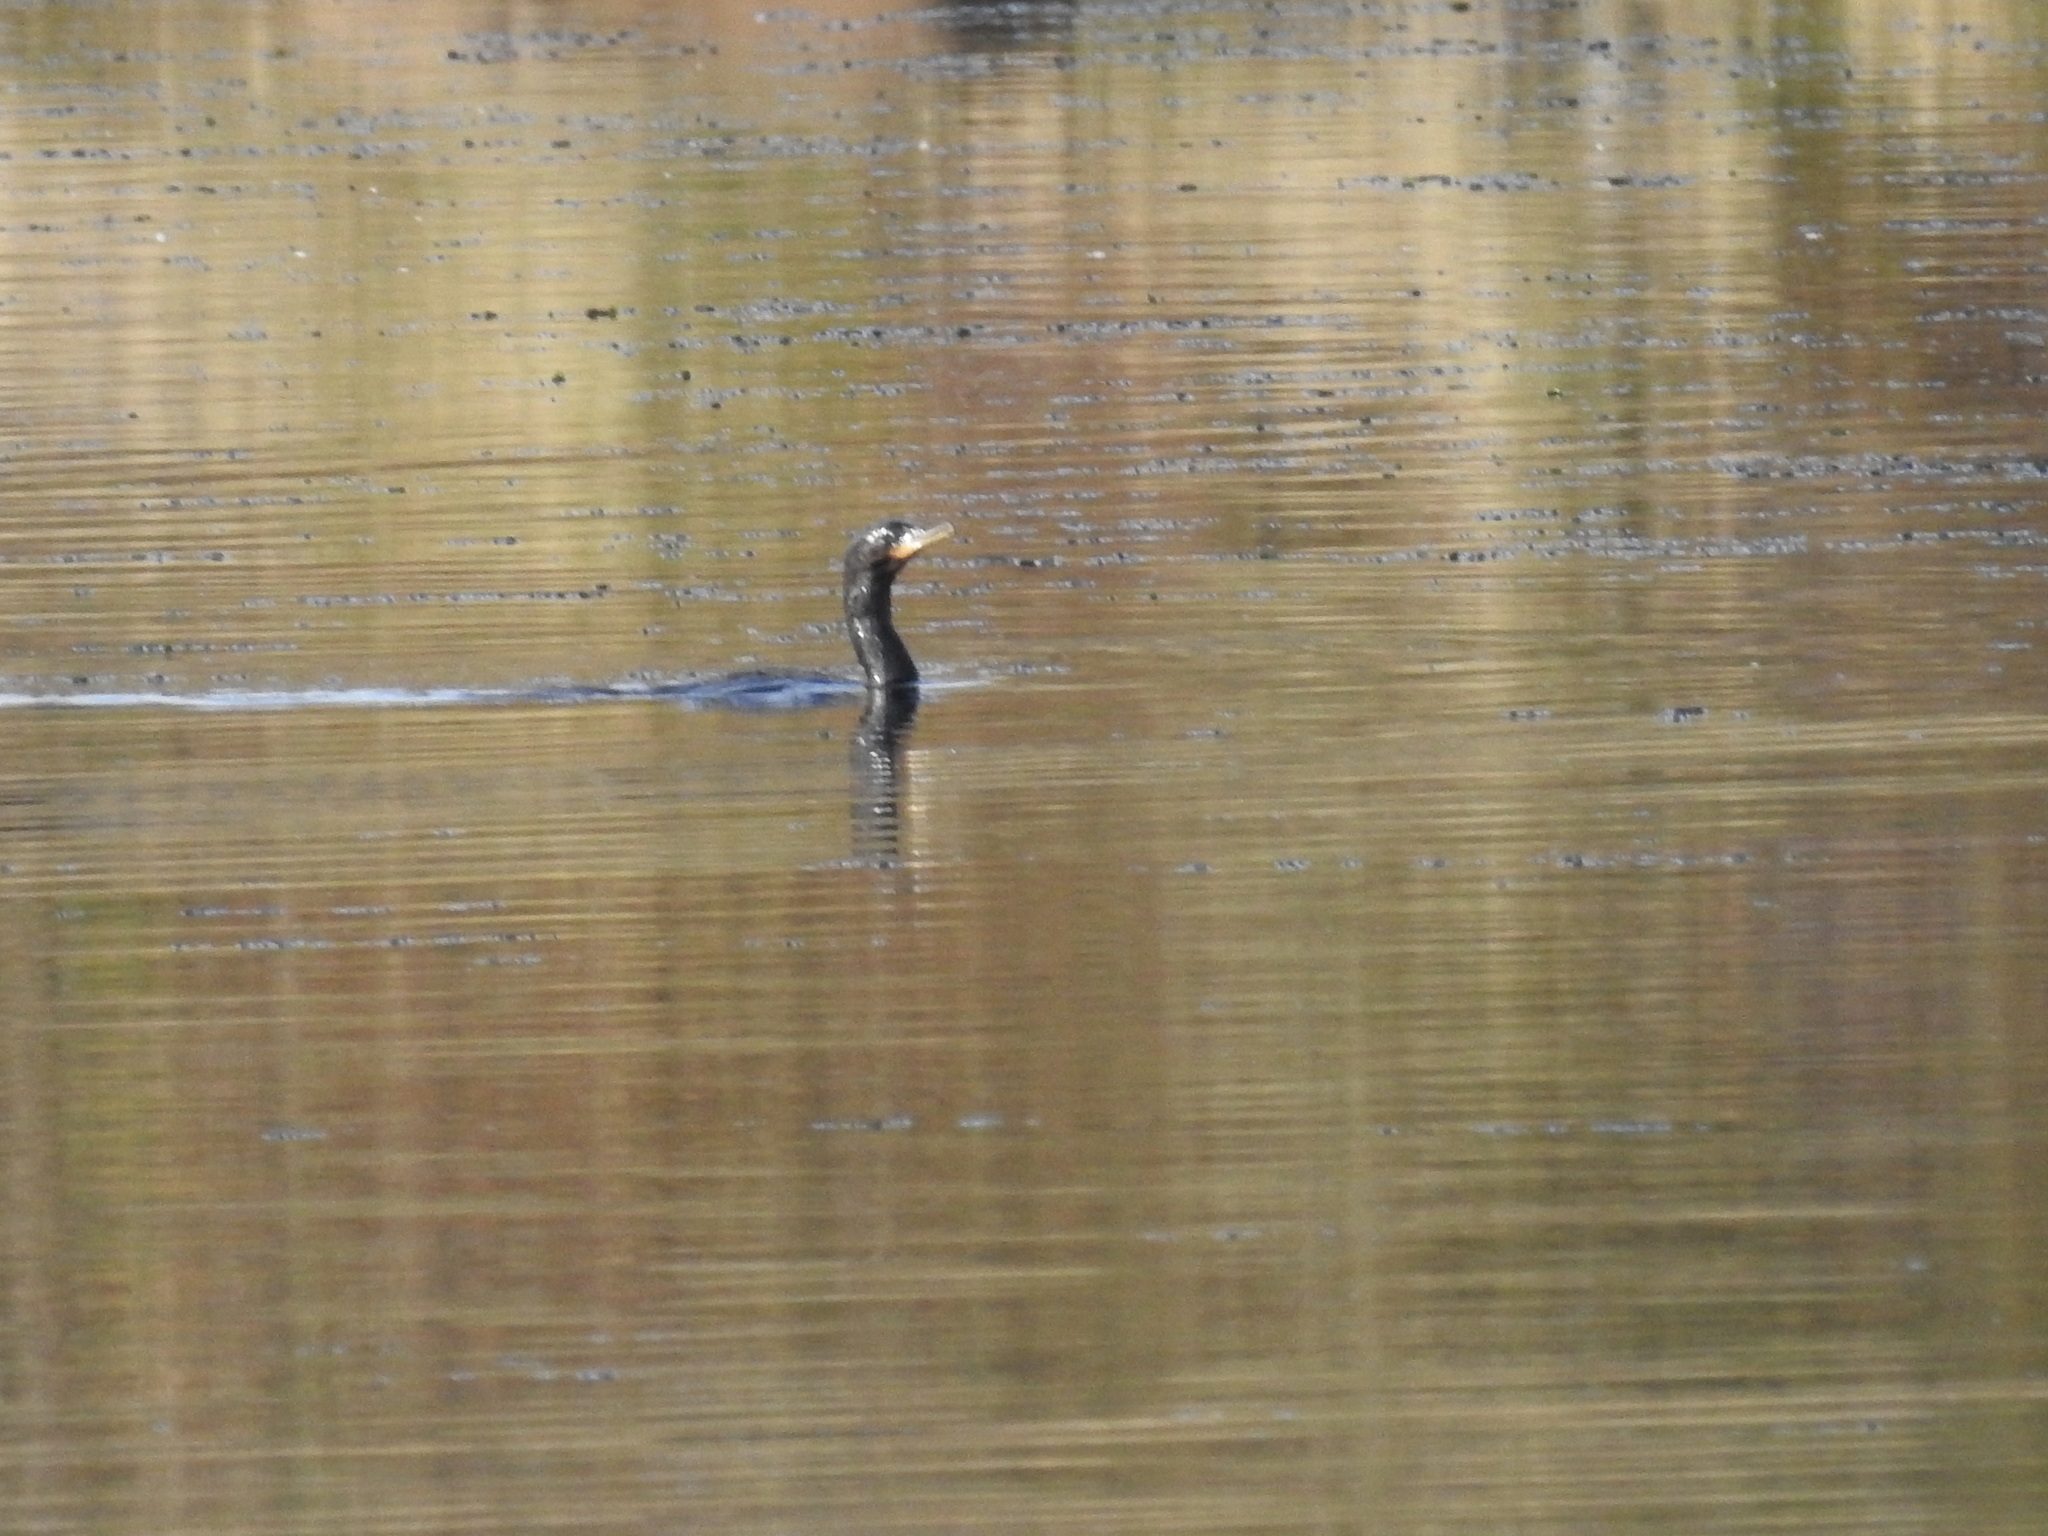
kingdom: Animalia
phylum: Chordata
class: Aves
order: Suliformes
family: Phalacrocoracidae
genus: Phalacrocorax
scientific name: Phalacrocorax brasilianus
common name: Neotropic cormorant
